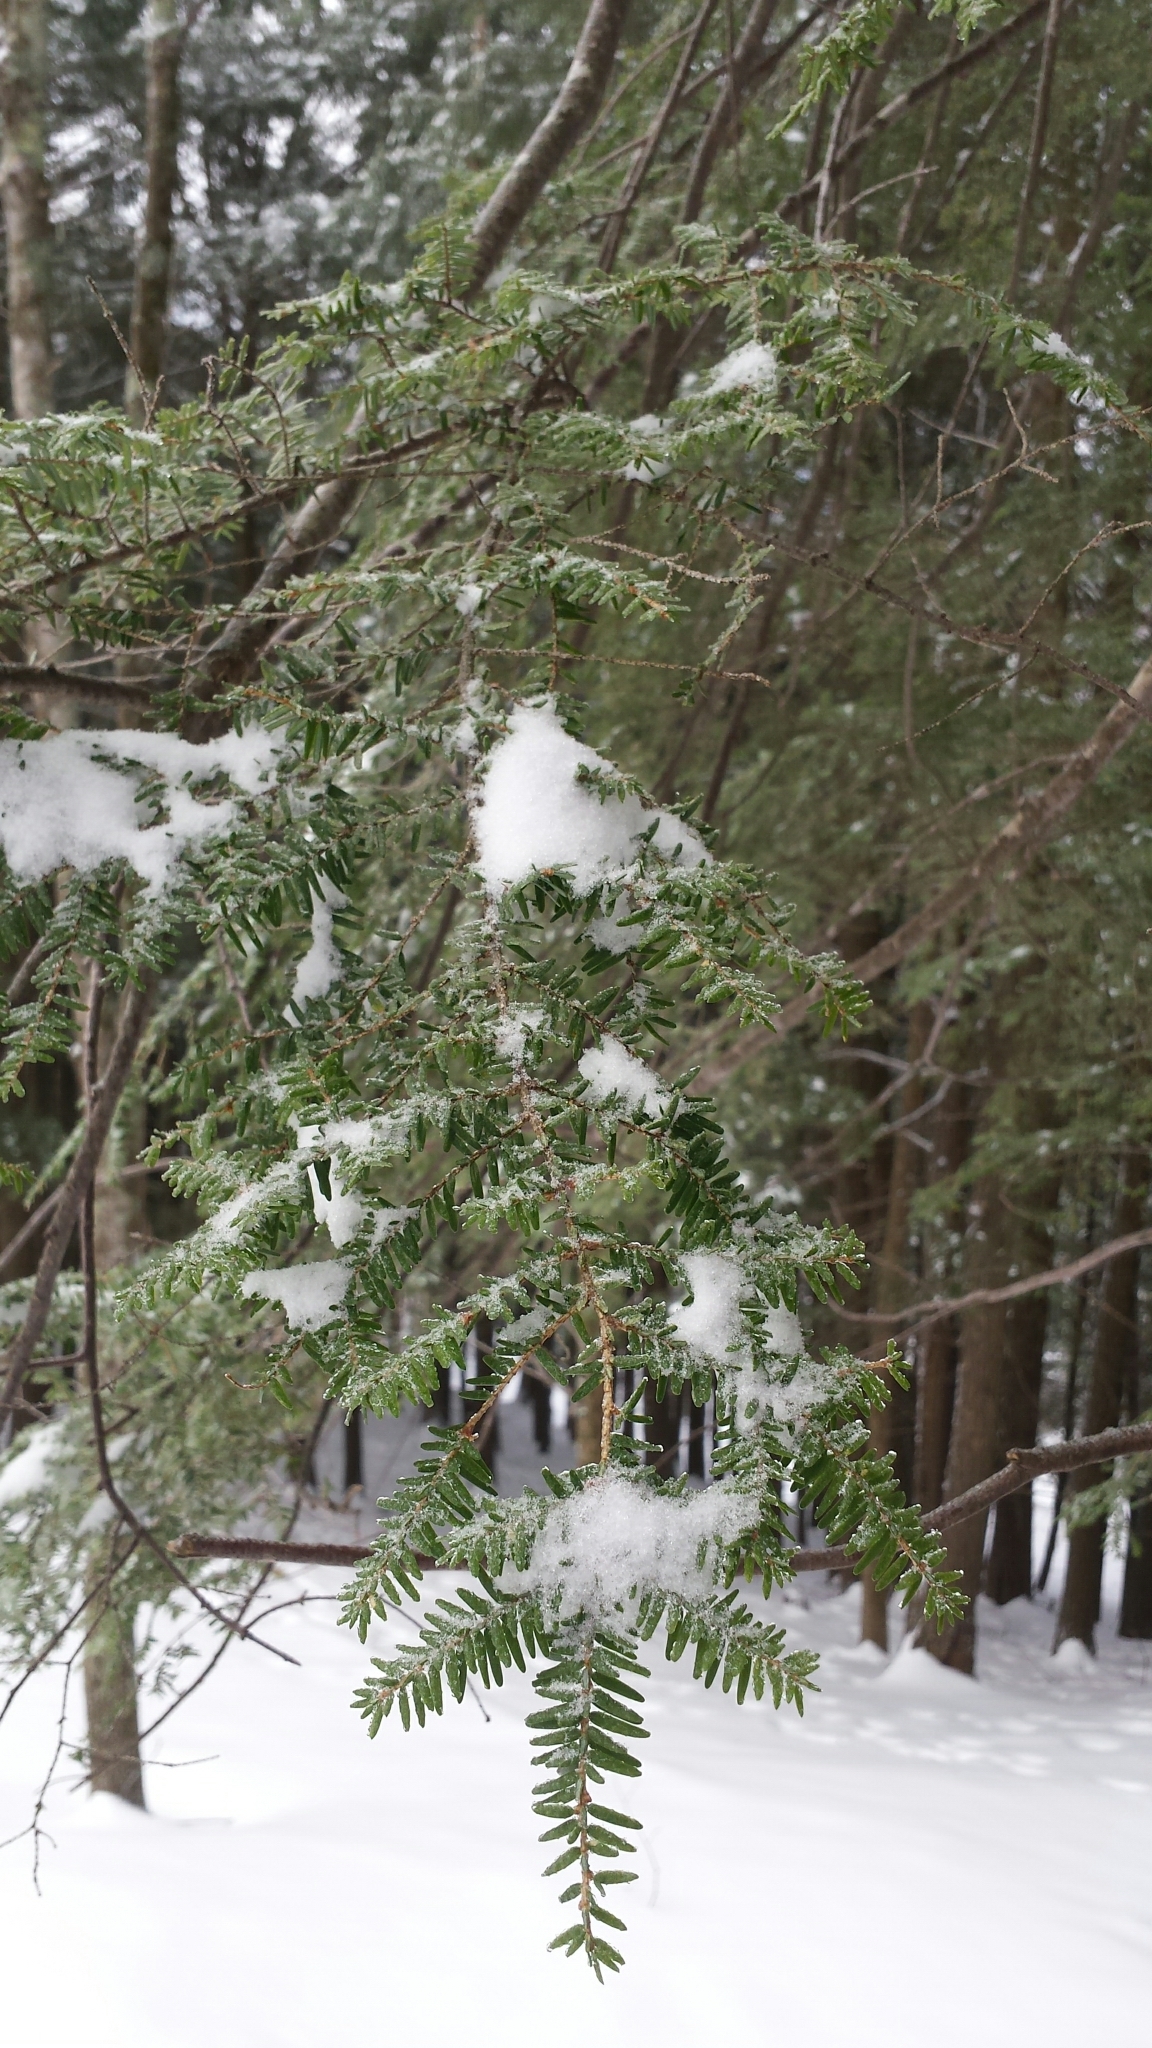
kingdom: Plantae
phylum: Tracheophyta
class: Pinopsida
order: Pinales
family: Pinaceae
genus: Tsuga
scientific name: Tsuga canadensis
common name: Eastern hemlock
